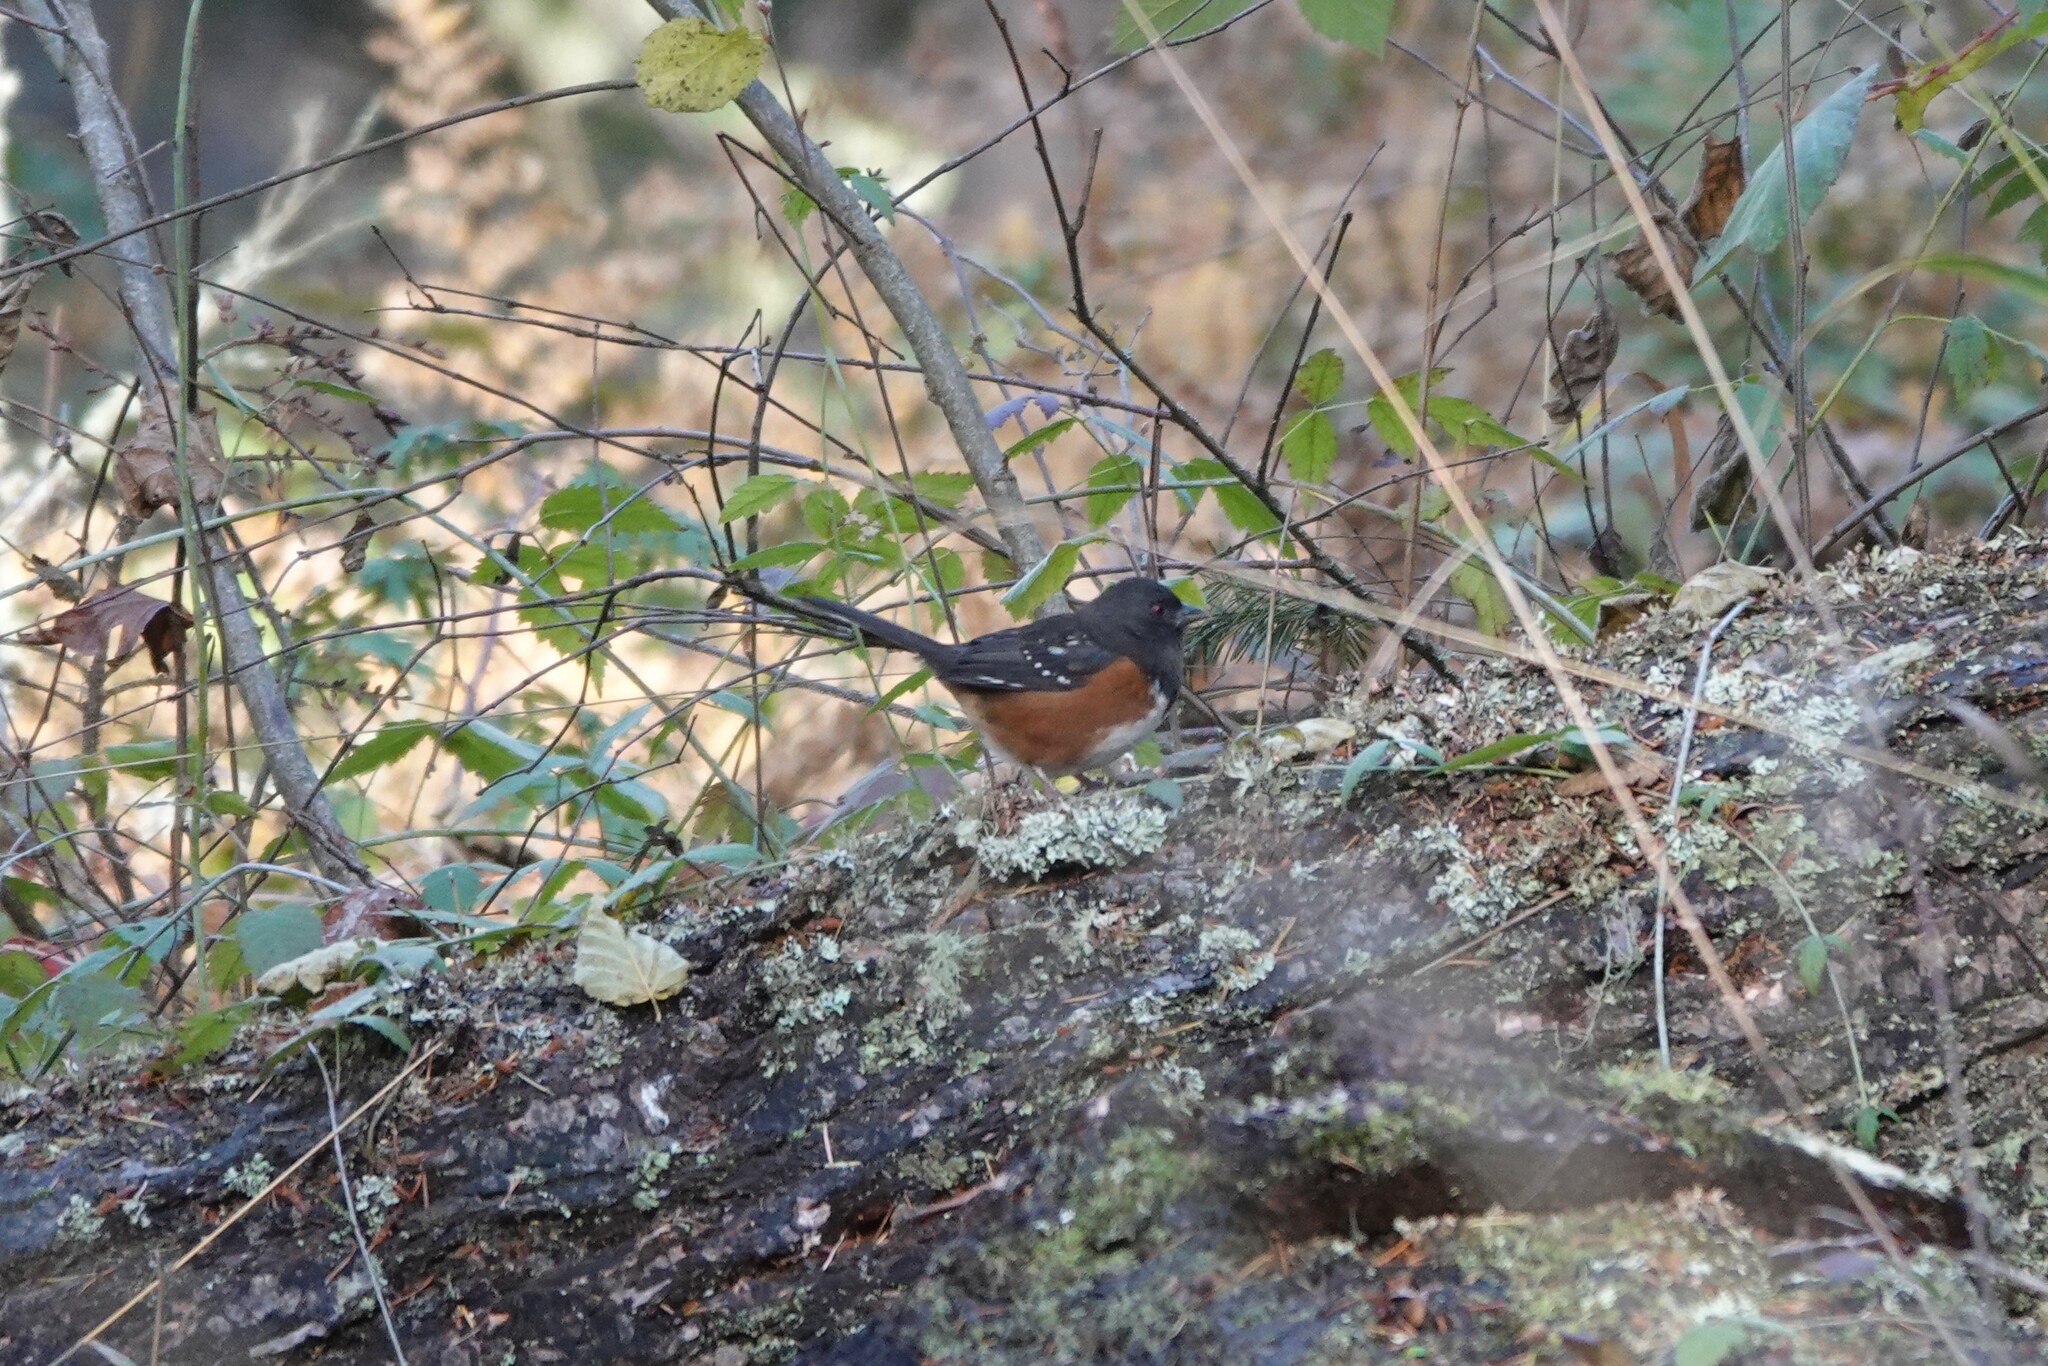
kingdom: Animalia
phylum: Chordata
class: Aves
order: Passeriformes
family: Passerellidae
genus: Pipilo
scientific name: Pipilo maculatus
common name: Spotted towhee
